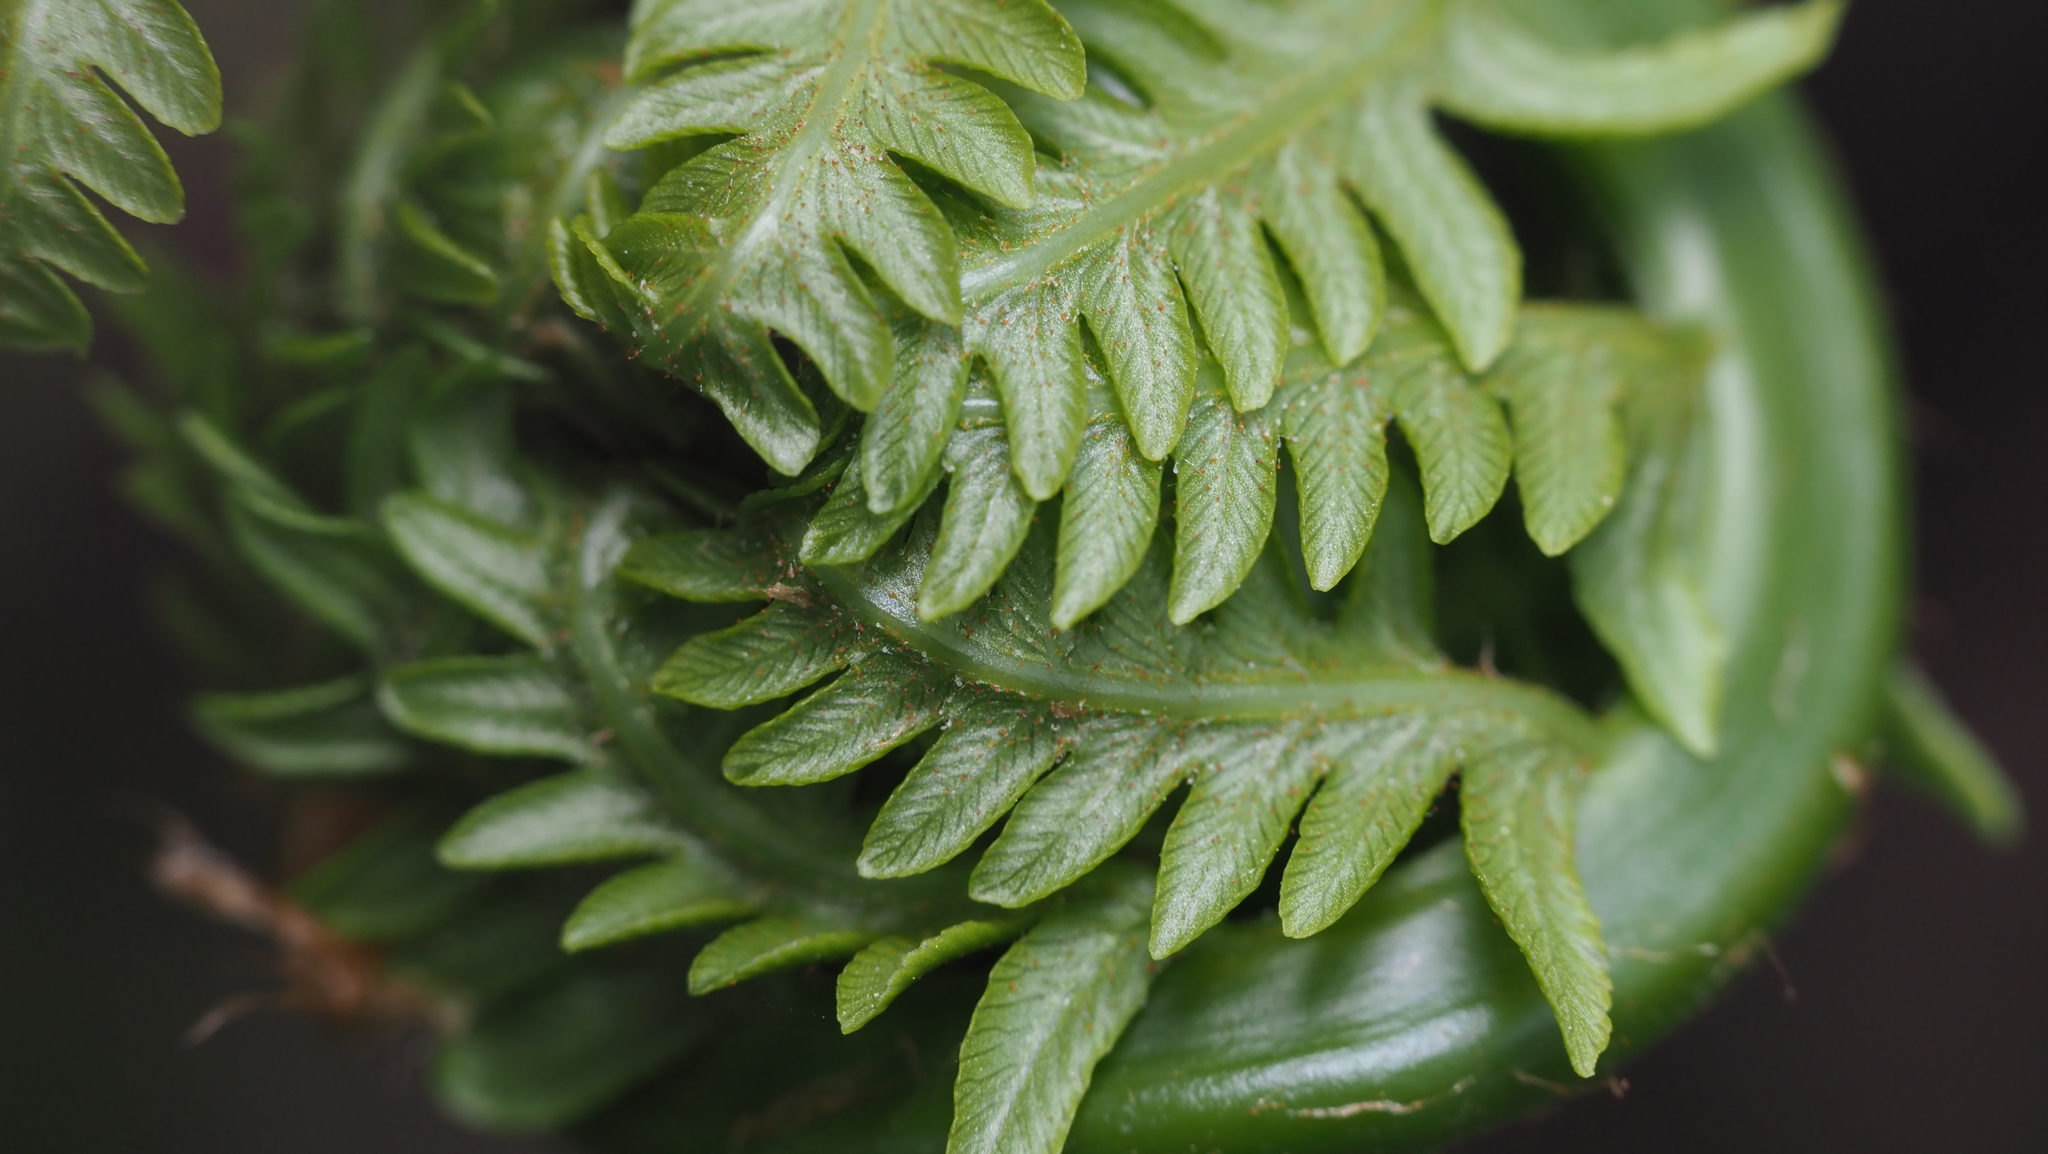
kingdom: Plantae
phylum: Tracheophyta
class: Polypodiopsida
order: Polypodiales
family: Onocleaceae
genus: Matteuccia
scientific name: Matteuccia struthiopteris
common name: Ostrich fern
